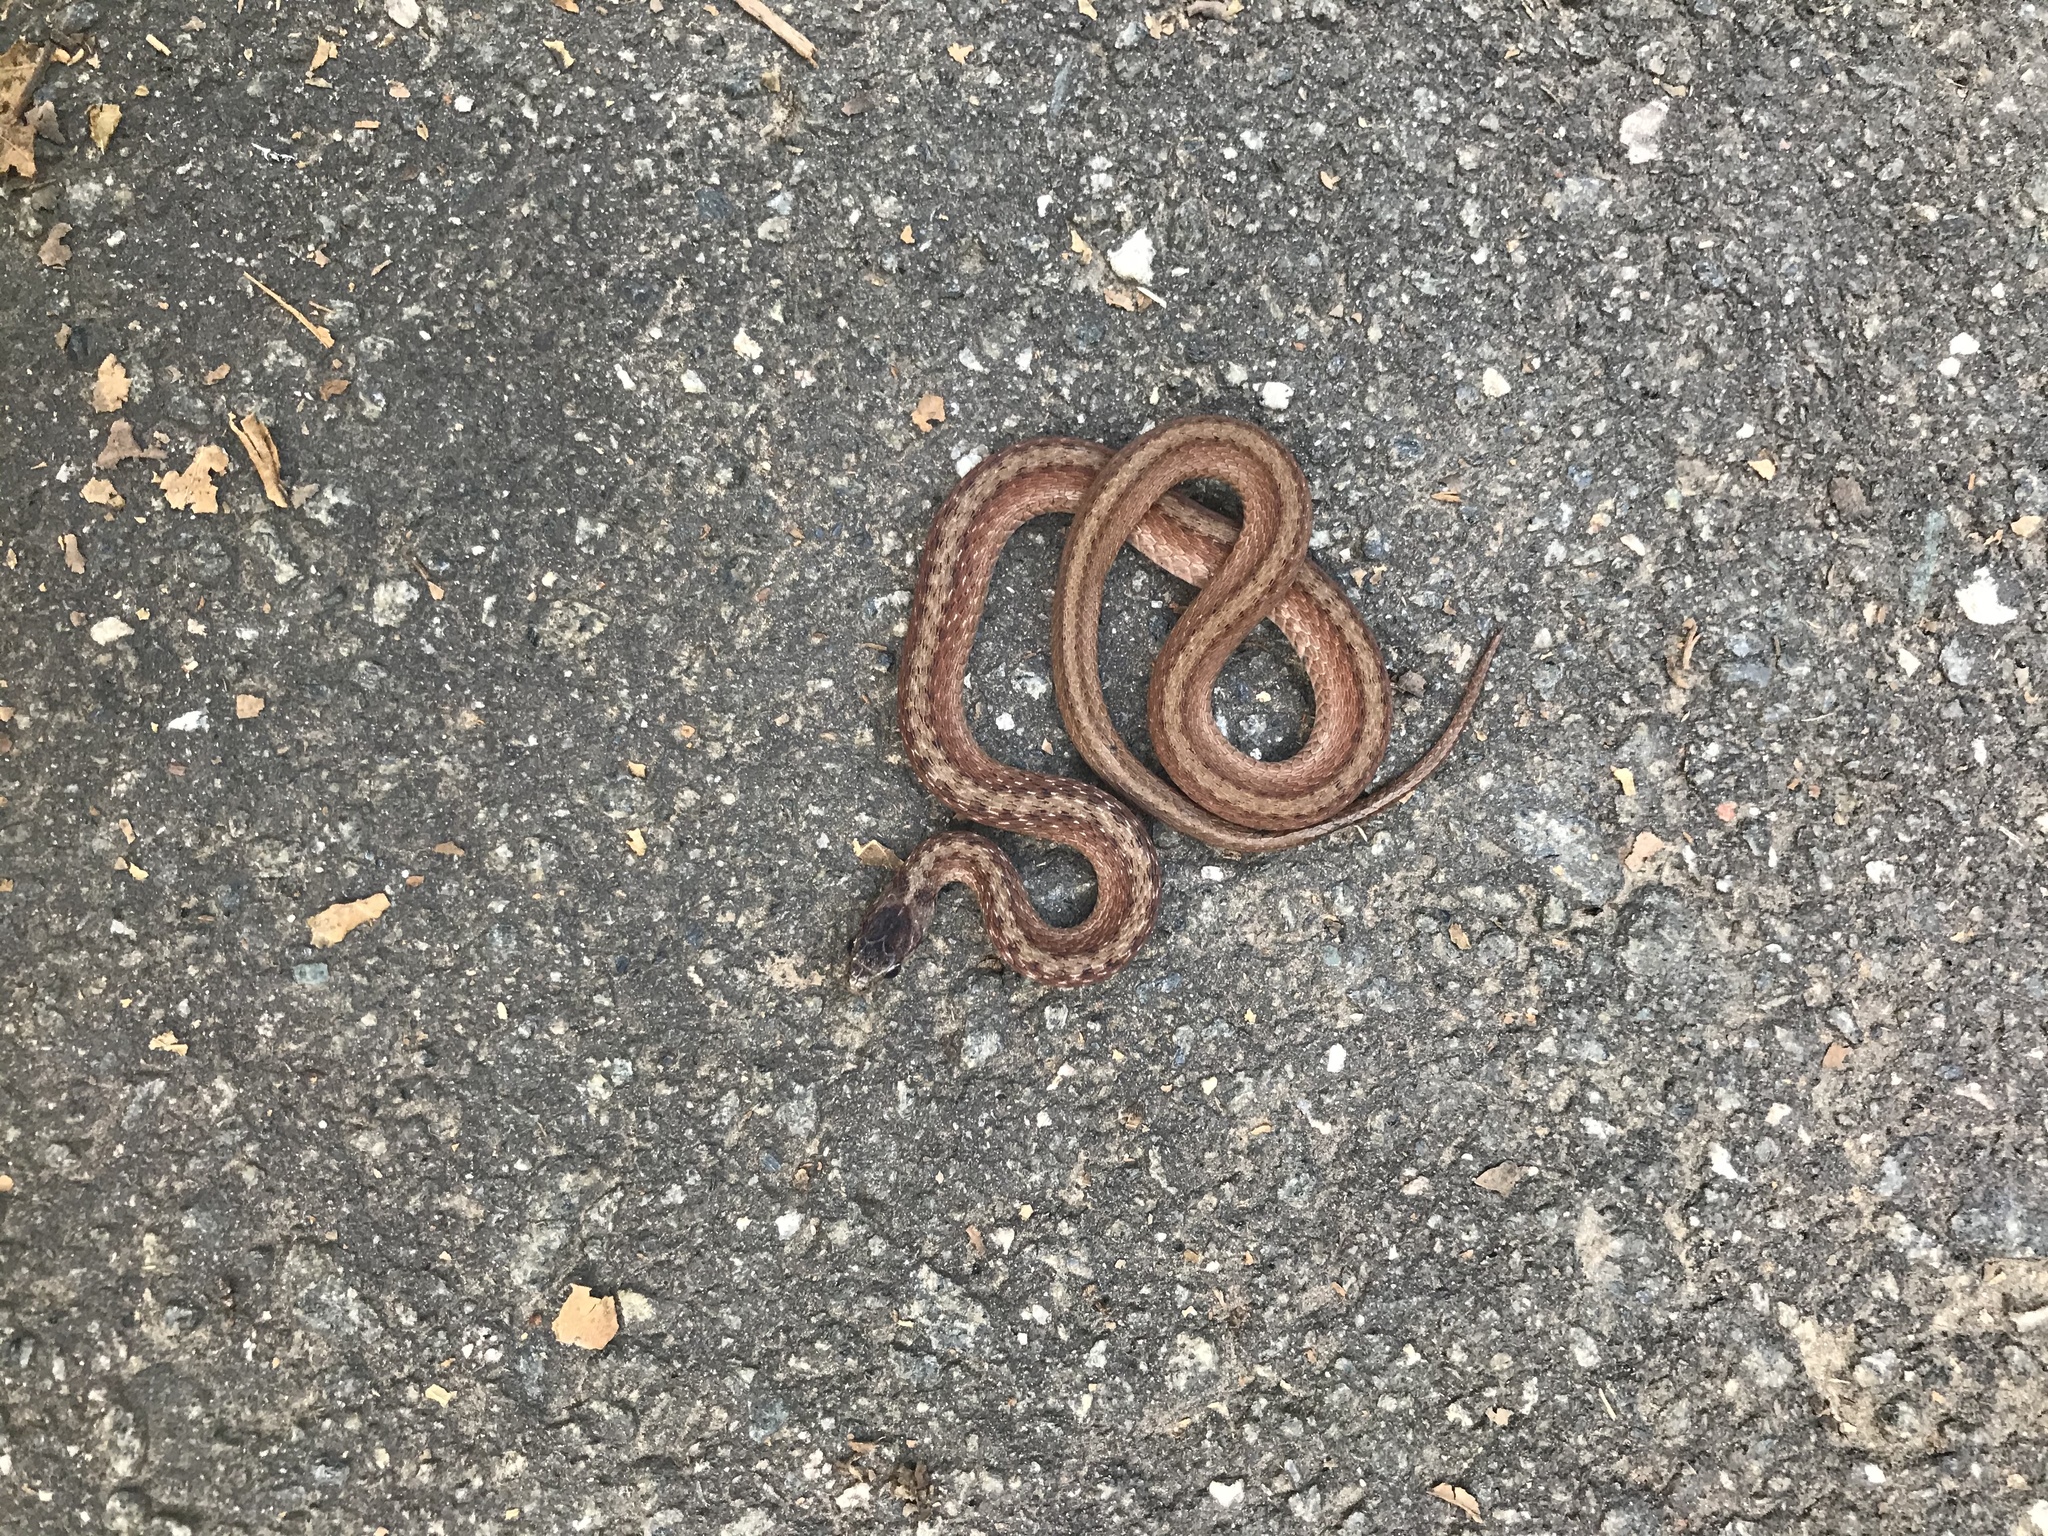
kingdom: Animalia
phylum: Chordata
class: Squamata
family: Colubridae
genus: Storeria
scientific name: Storeria dekayi
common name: (dekay’s) brown snake
